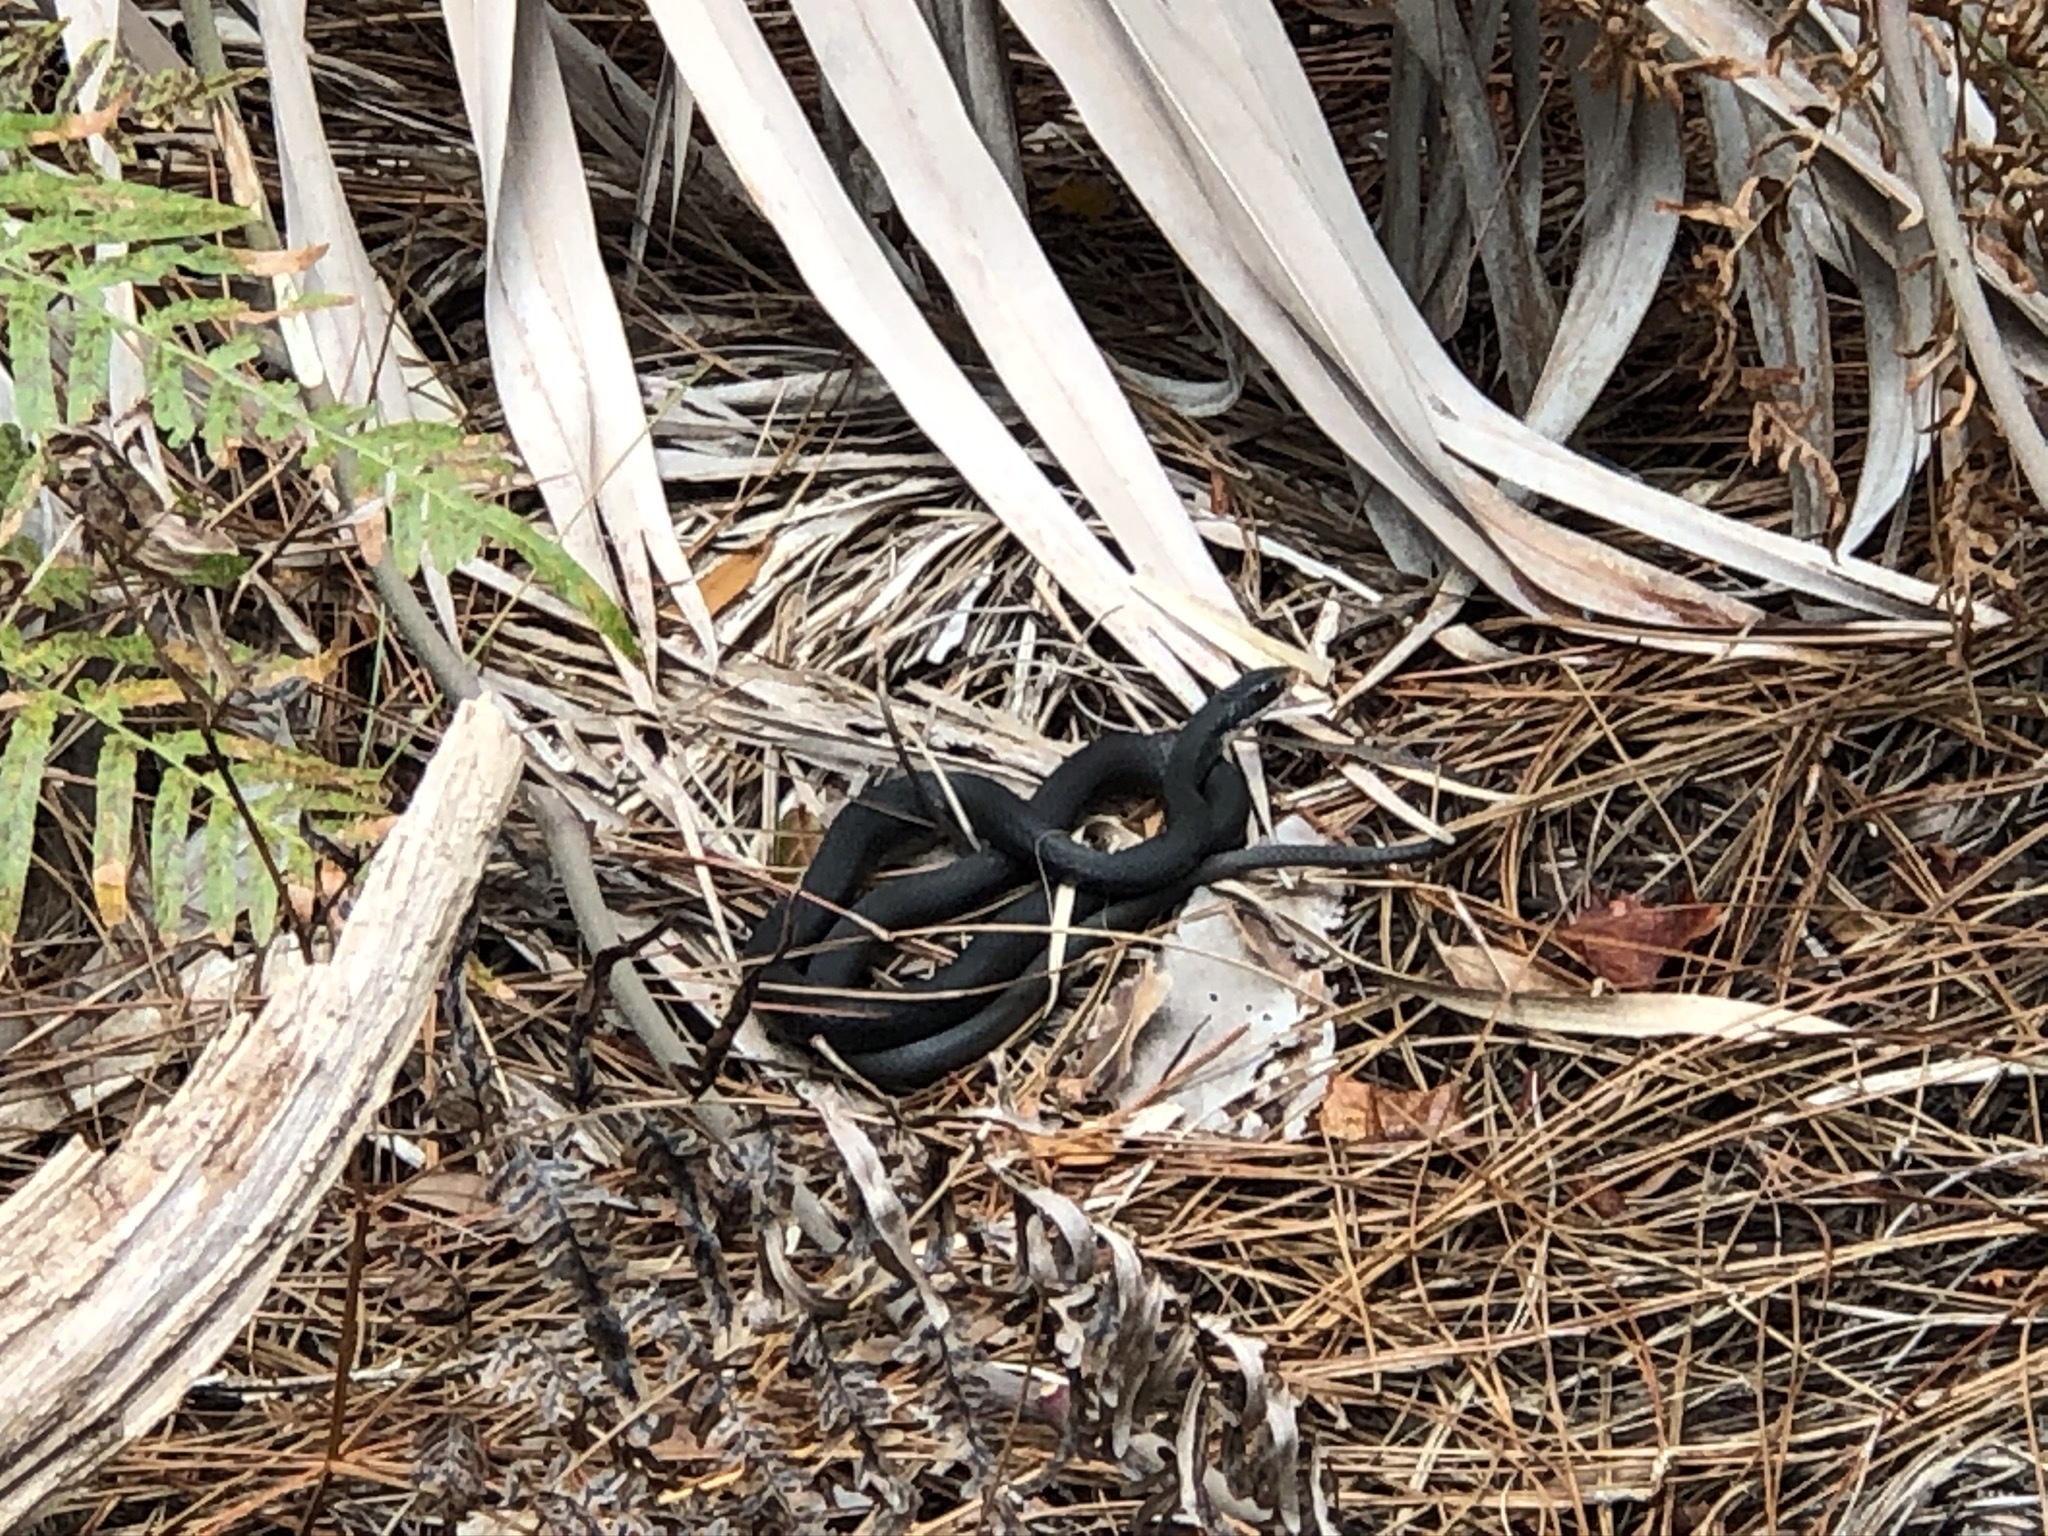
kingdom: Animalia
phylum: Chordata
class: Squamata
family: Colubridae
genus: Coluber
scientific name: Coluber constrictor
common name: Eastern racer
